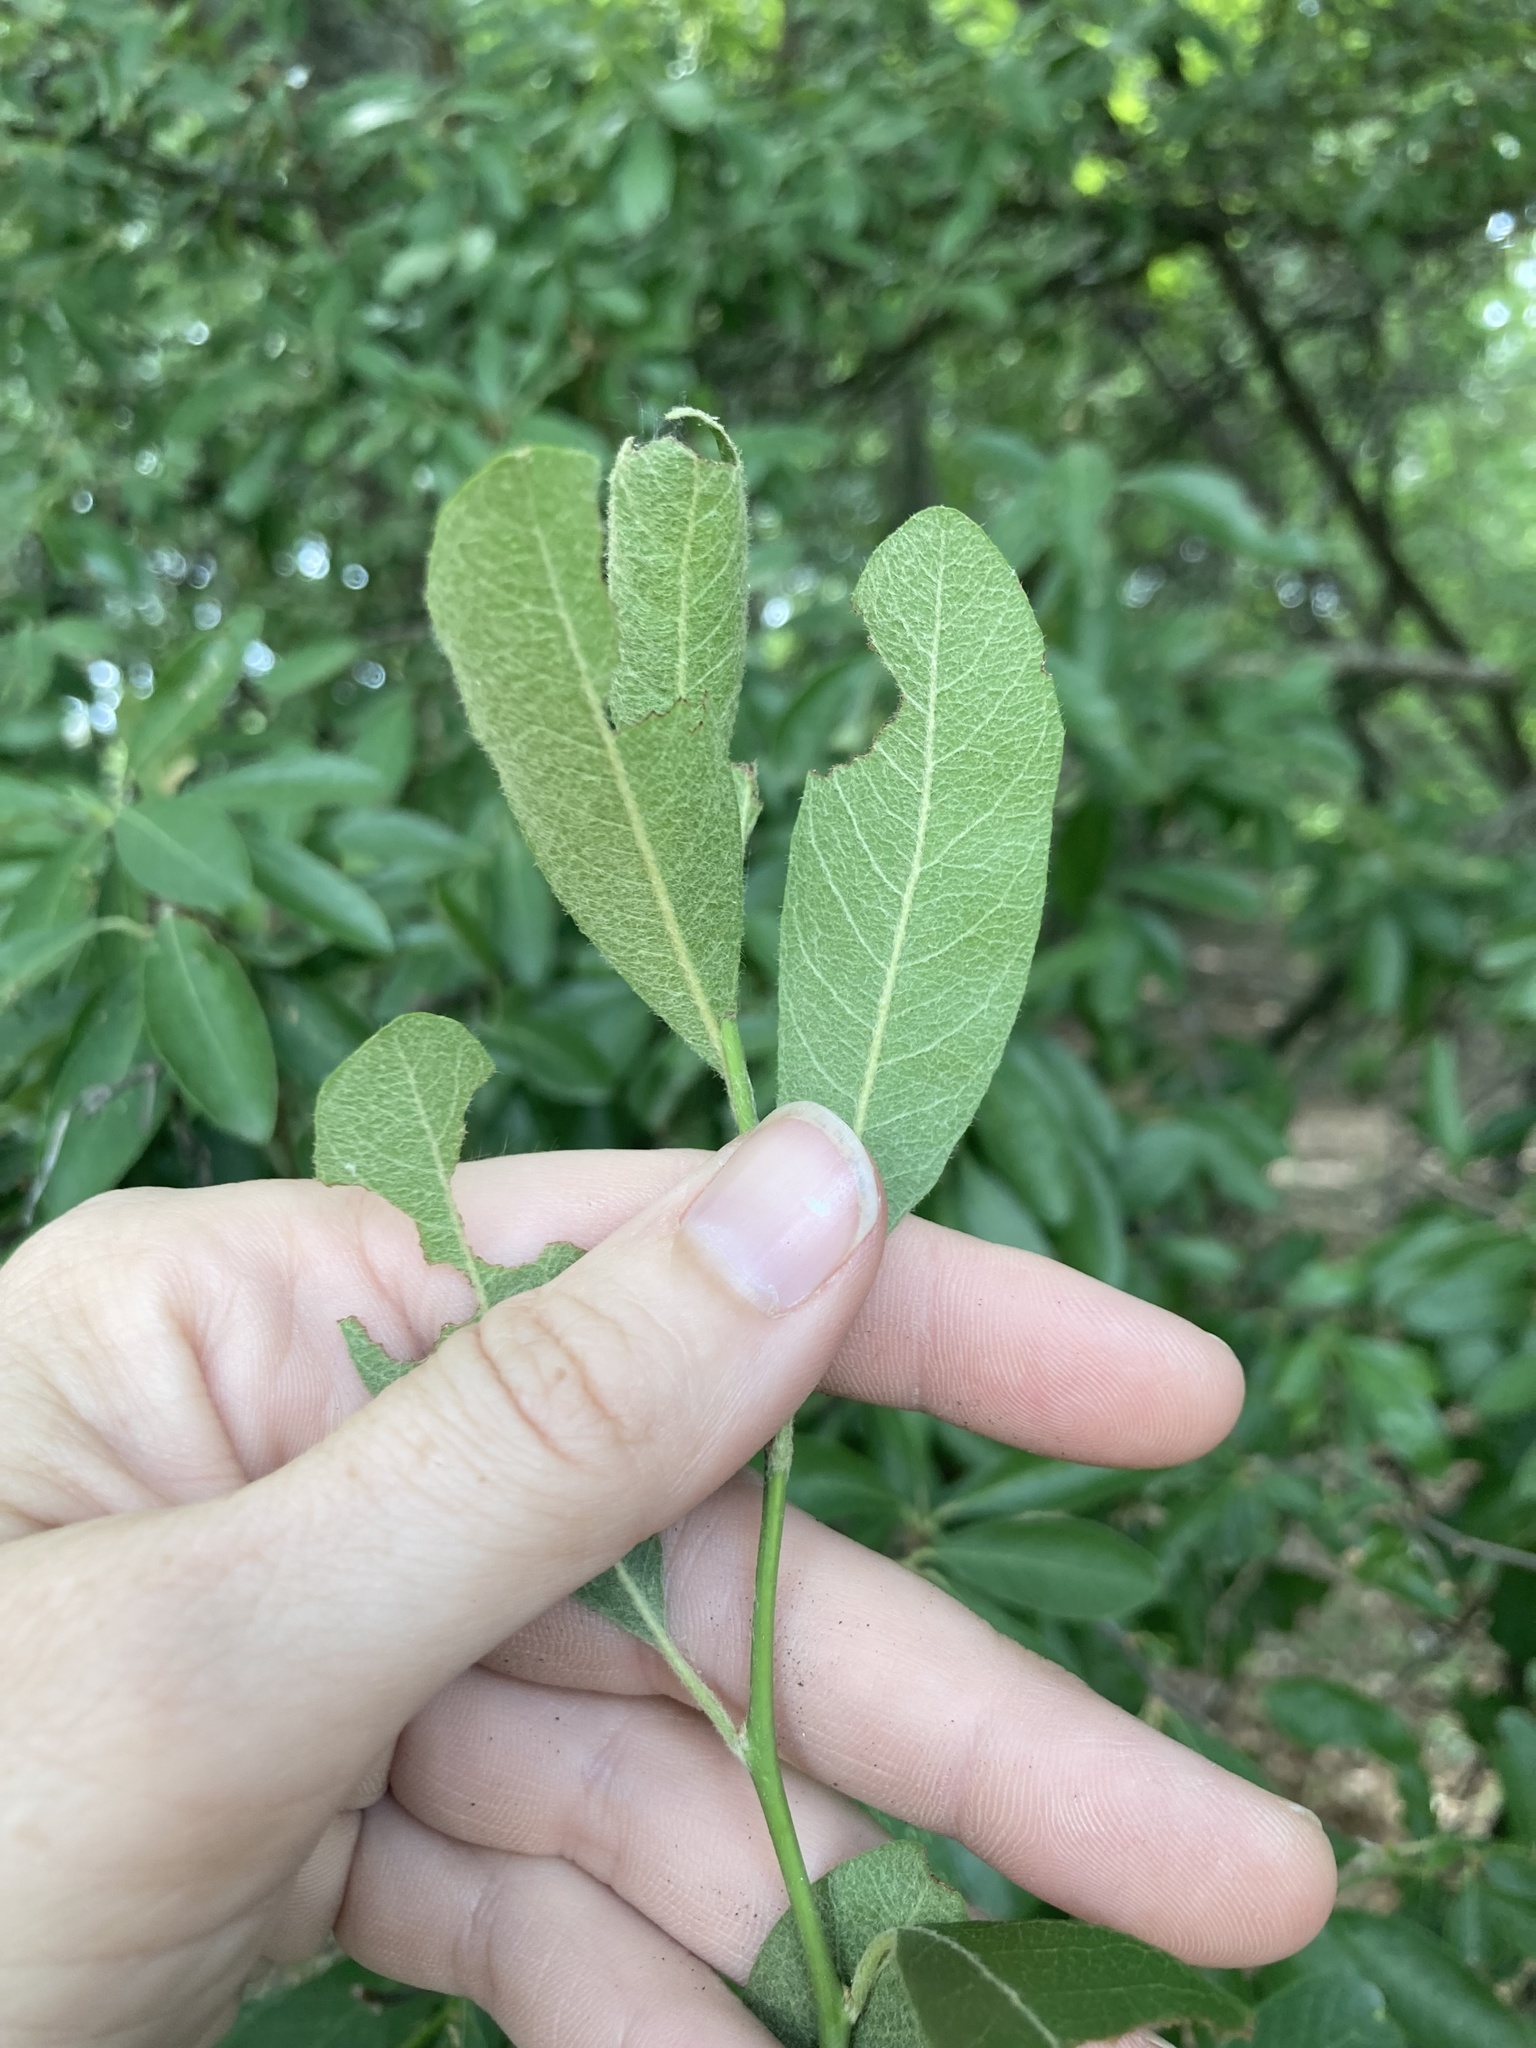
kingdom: Plantae
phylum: Tracheophyta
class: Magnoliopsida
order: Ericales
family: Sapotaceae
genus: Sideroxylon
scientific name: Sideroxylon lanuginosum
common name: Chittamwood
